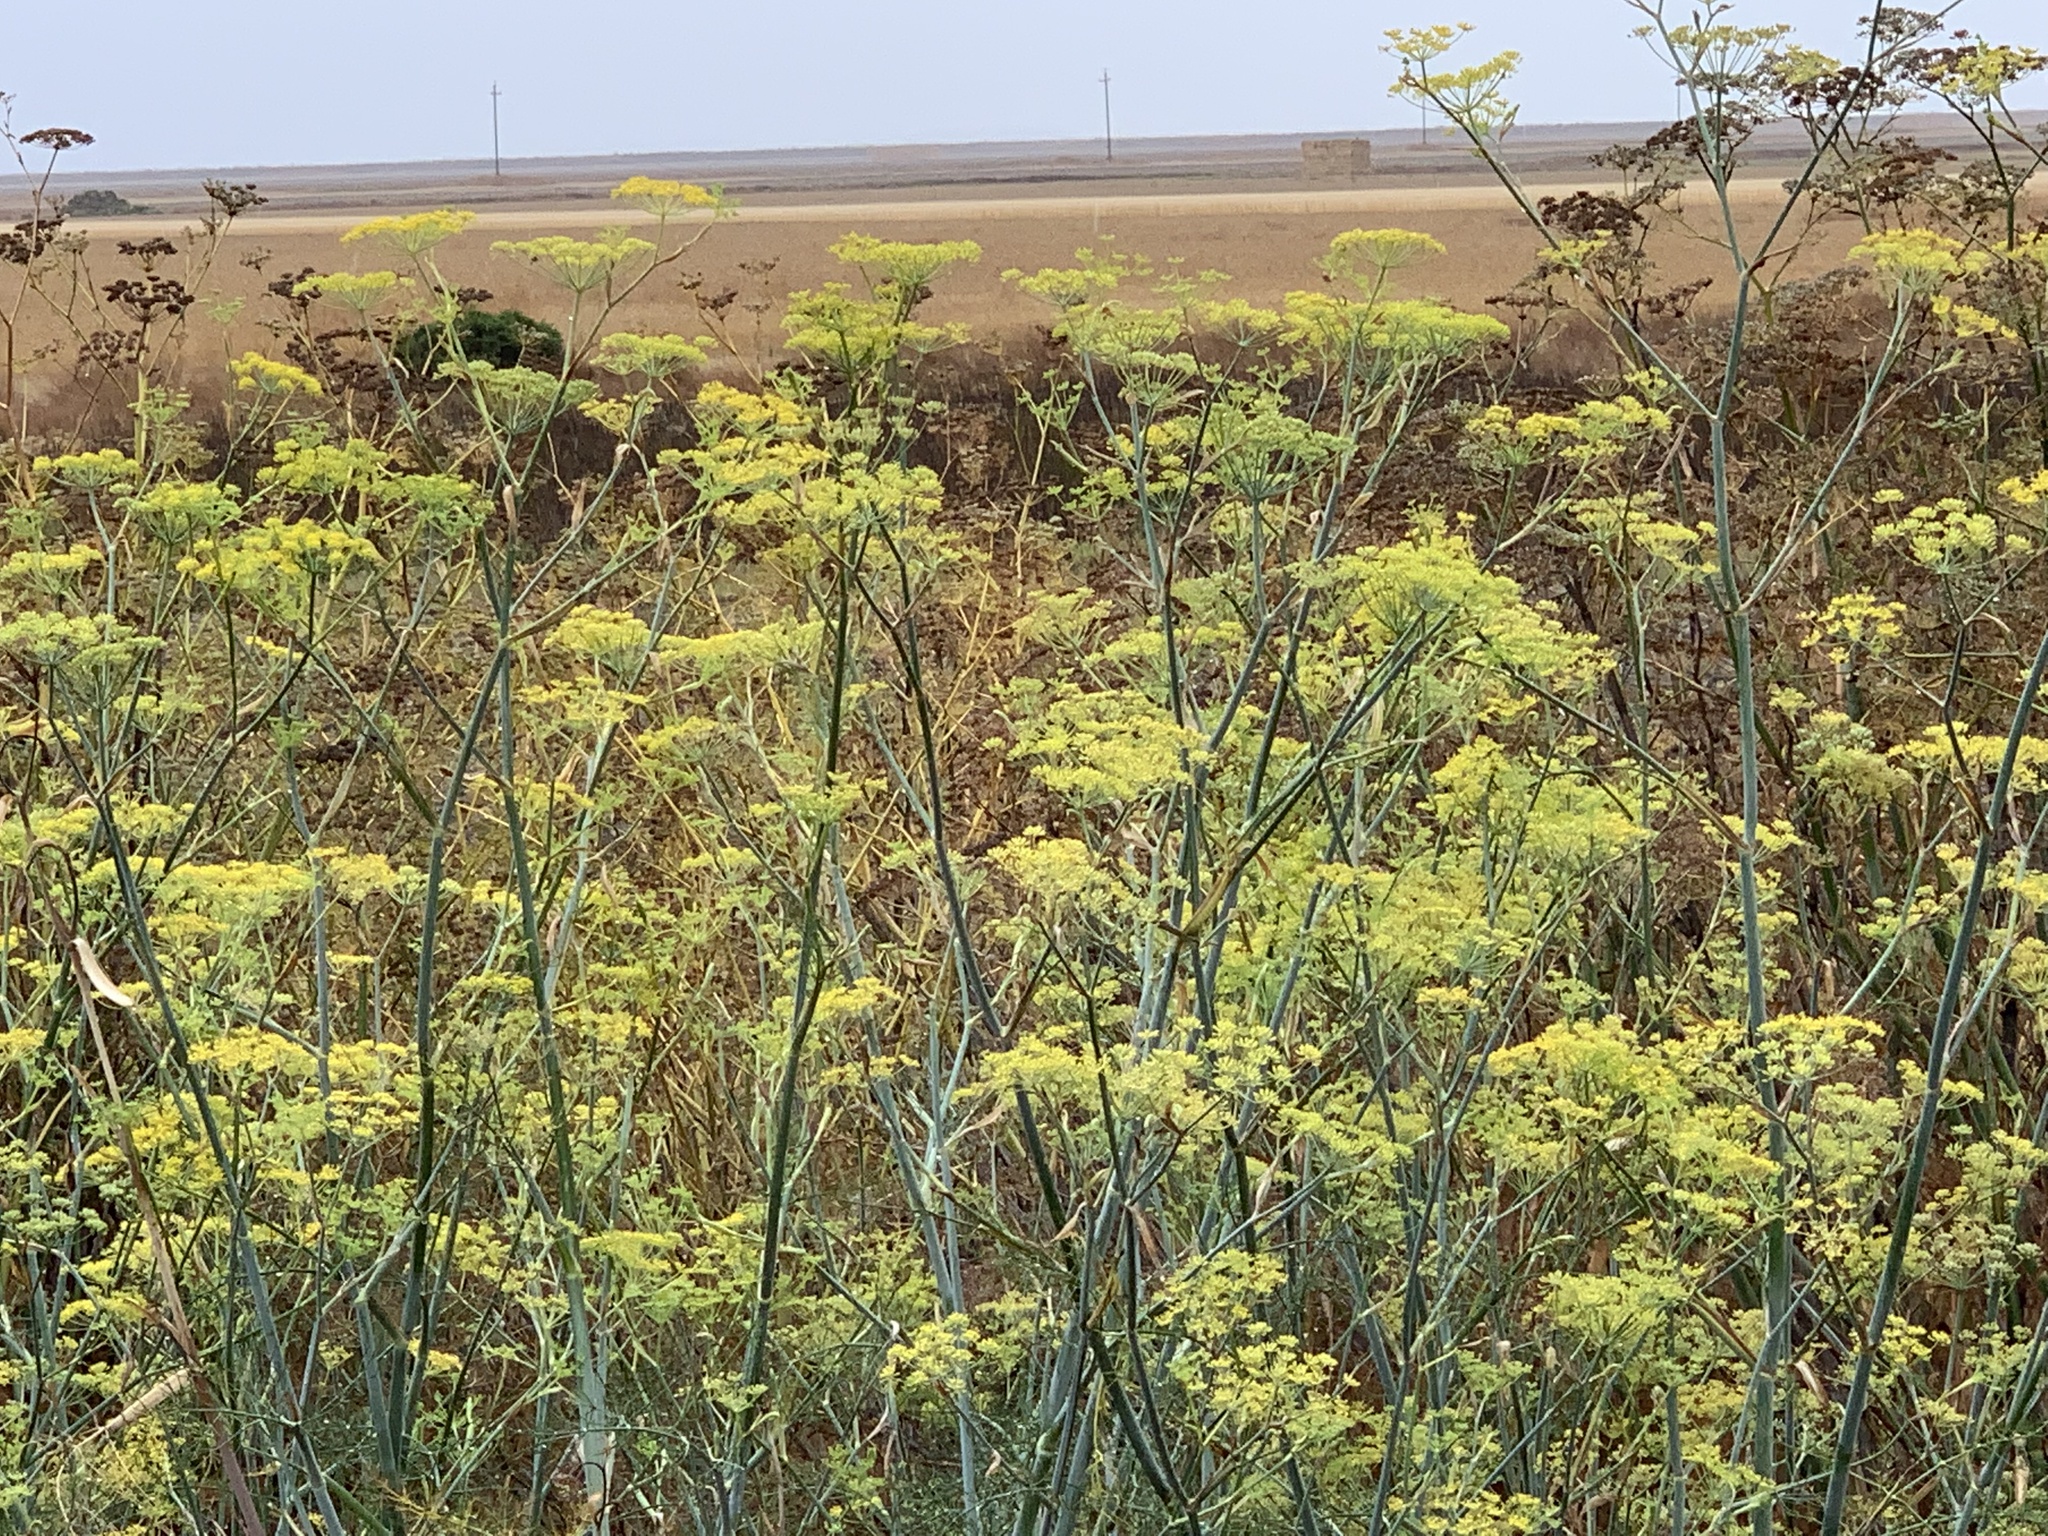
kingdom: Plantae
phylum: Tracheophyta
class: Magnoliopsida
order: Apiales
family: Apiaceae
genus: Foeniculum
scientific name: Foeniculum vulgare
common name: Fennel
